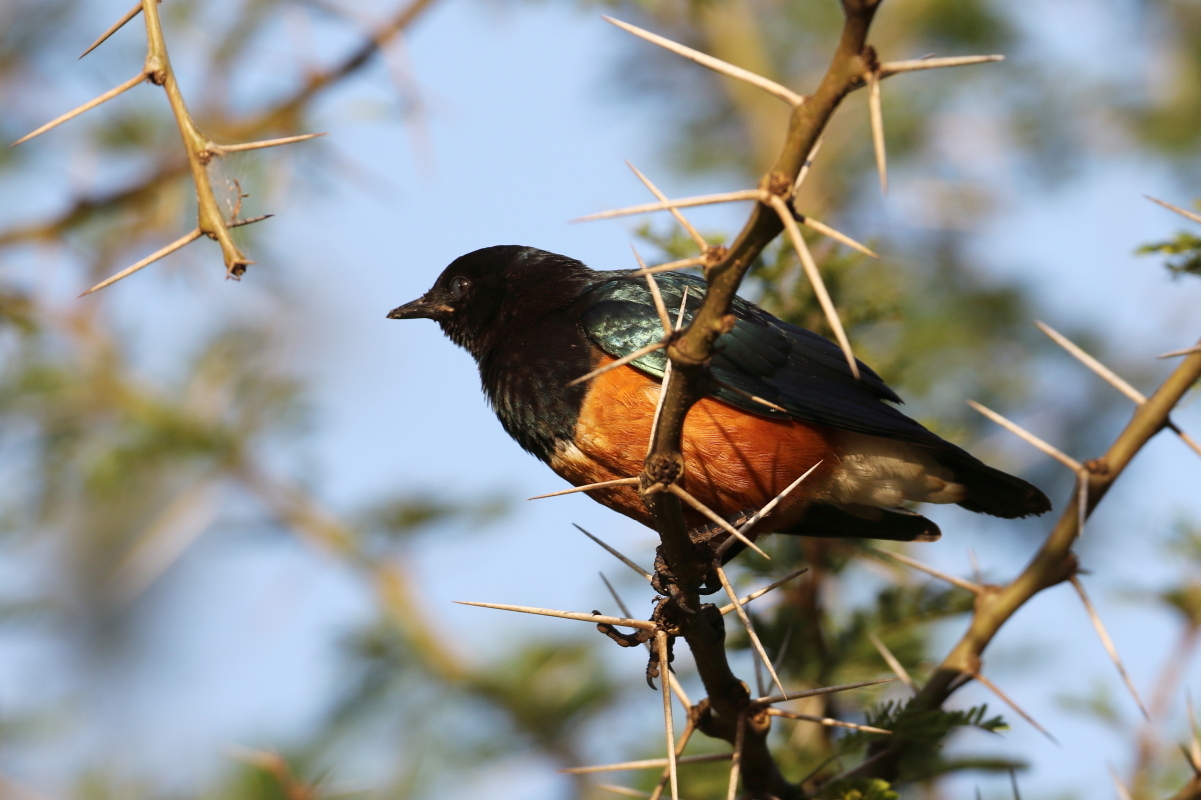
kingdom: Animalia
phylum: Chordata
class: Aves
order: Passeriformes
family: Sturnidae
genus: Lamprotornis
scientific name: Lamprotornis superbus
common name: Superb starling
